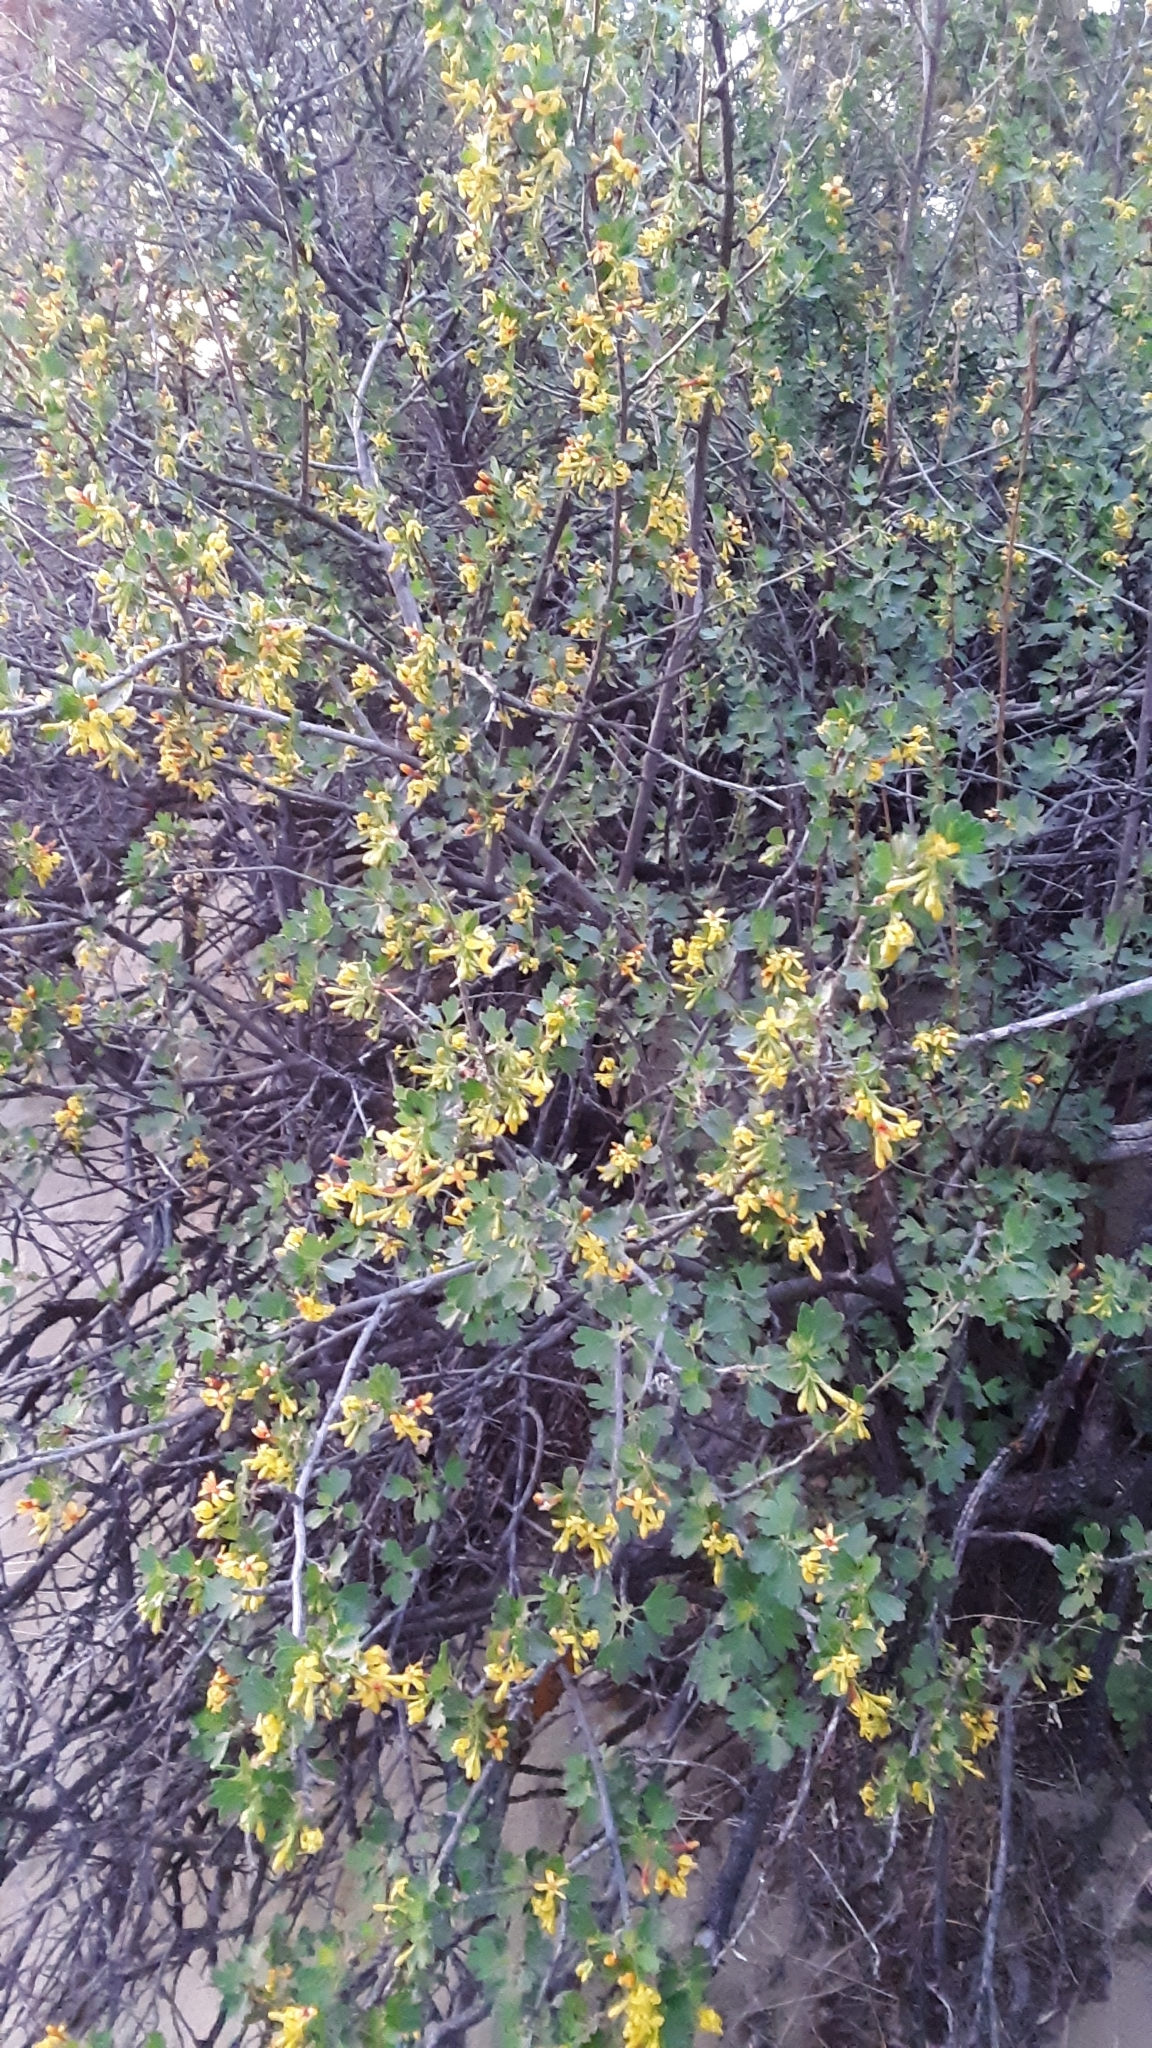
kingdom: Plantae
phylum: Tracheophyta
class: Magnoliopsida
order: Saxifragales
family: Grossulariaceae
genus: Ribes
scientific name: Ribes aureum
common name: Golden currant
